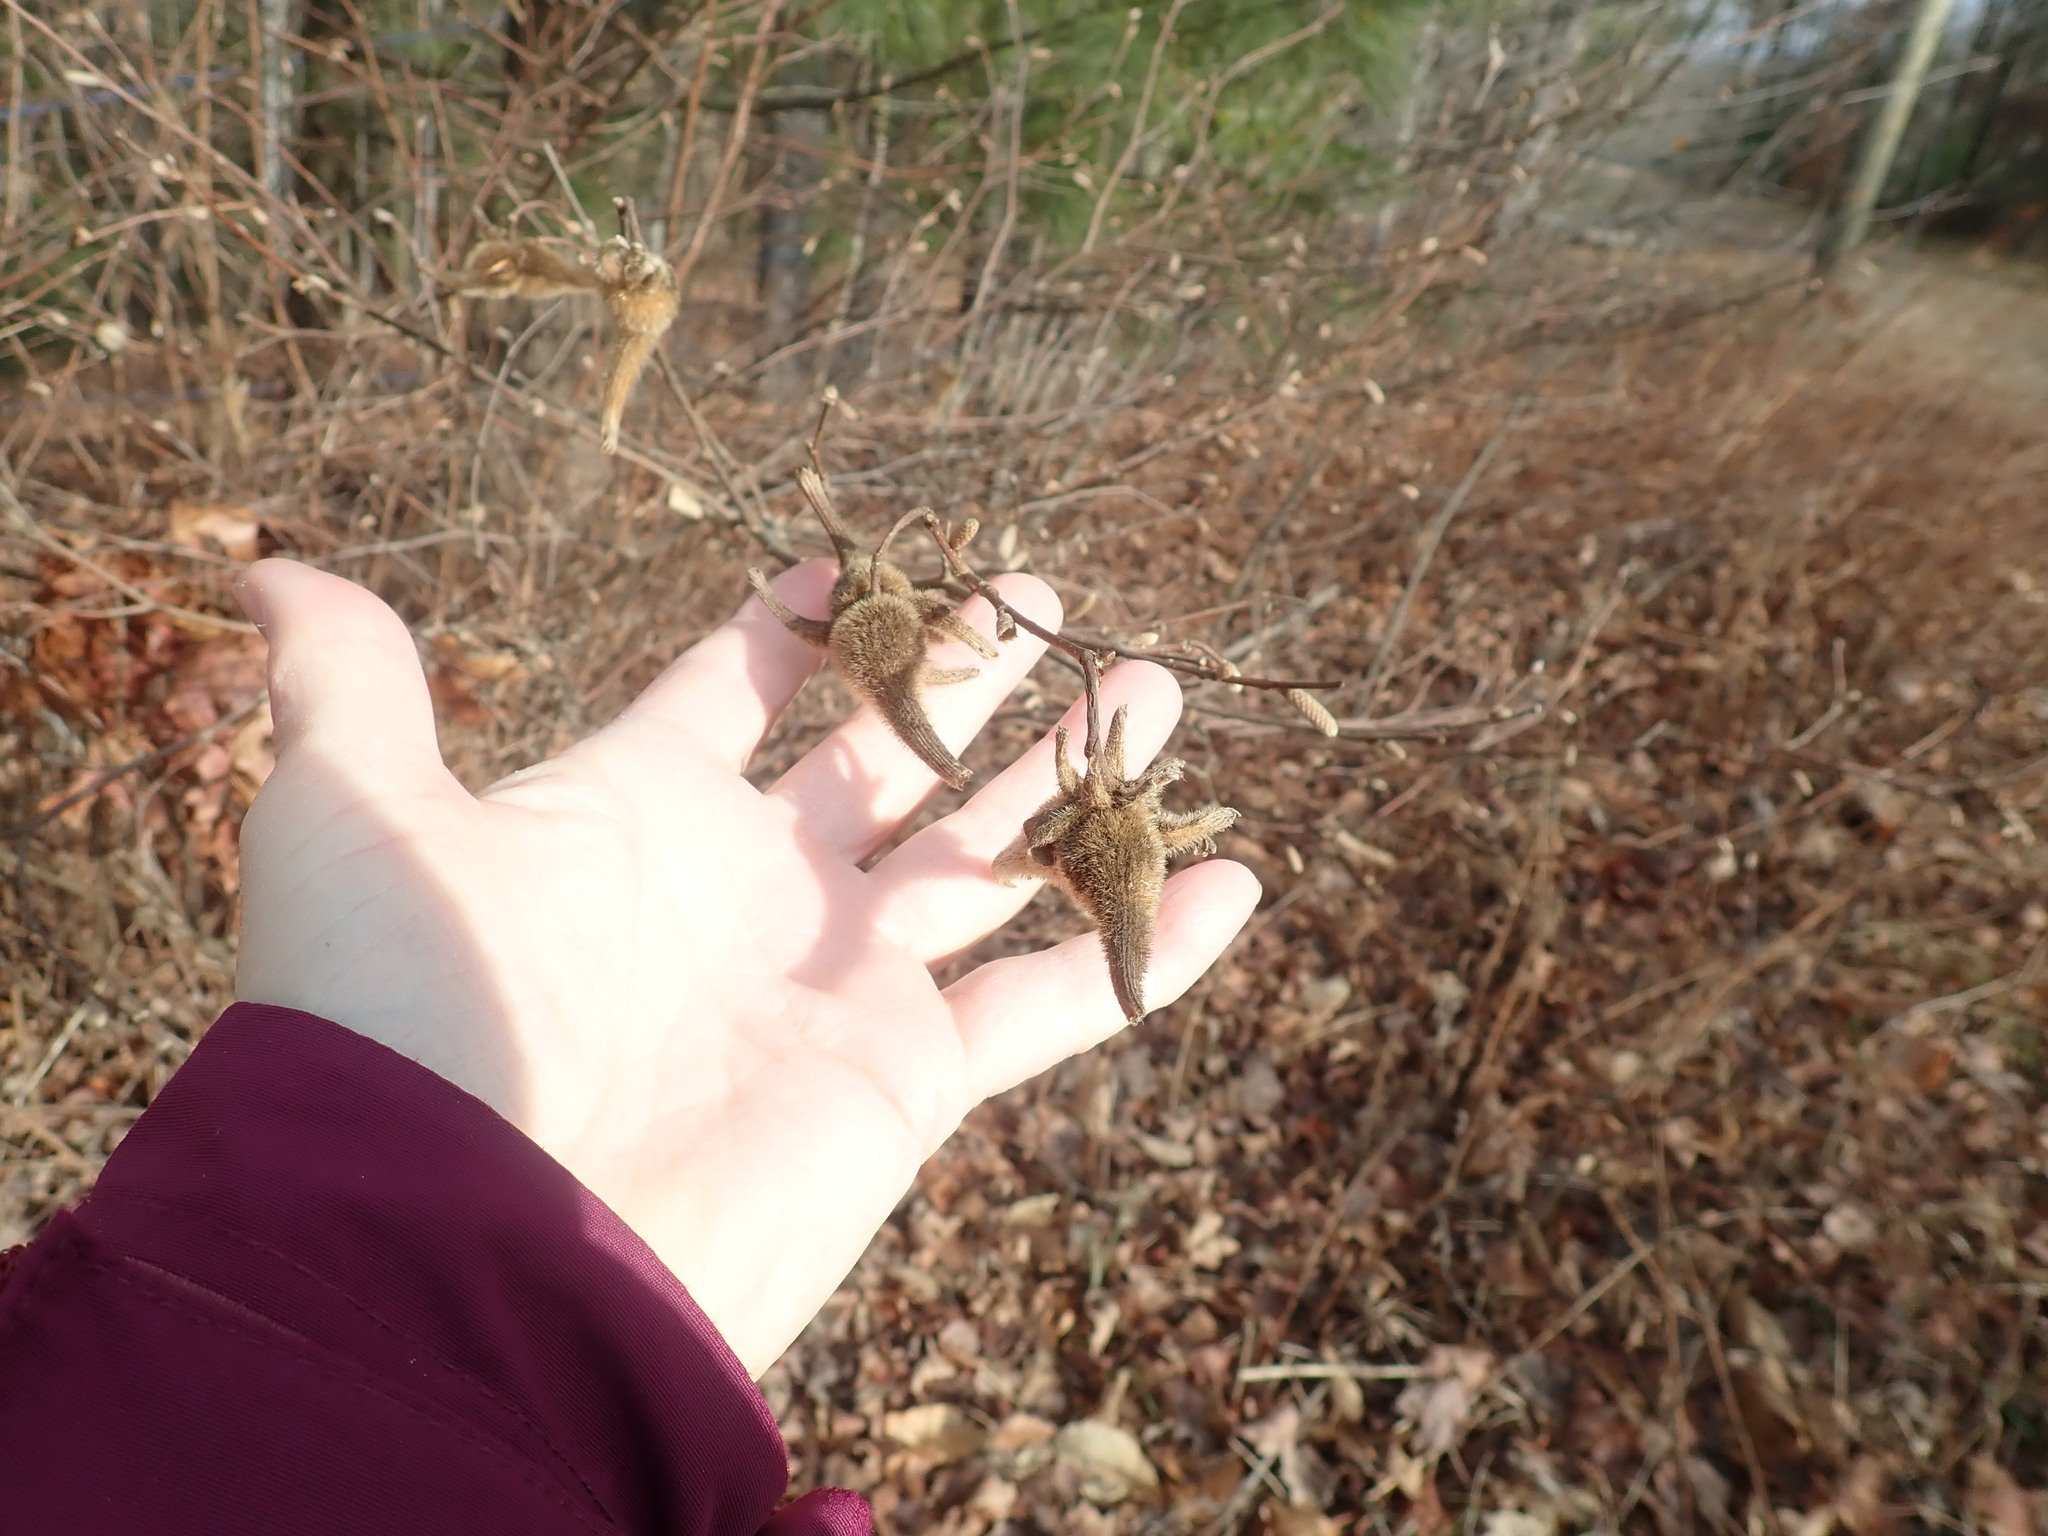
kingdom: Plantae
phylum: Tracheophyta
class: Magnoliopsida
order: Fagales
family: Betulaceae
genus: Corylus
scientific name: Corylus cornuta
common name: Beaked hazel
